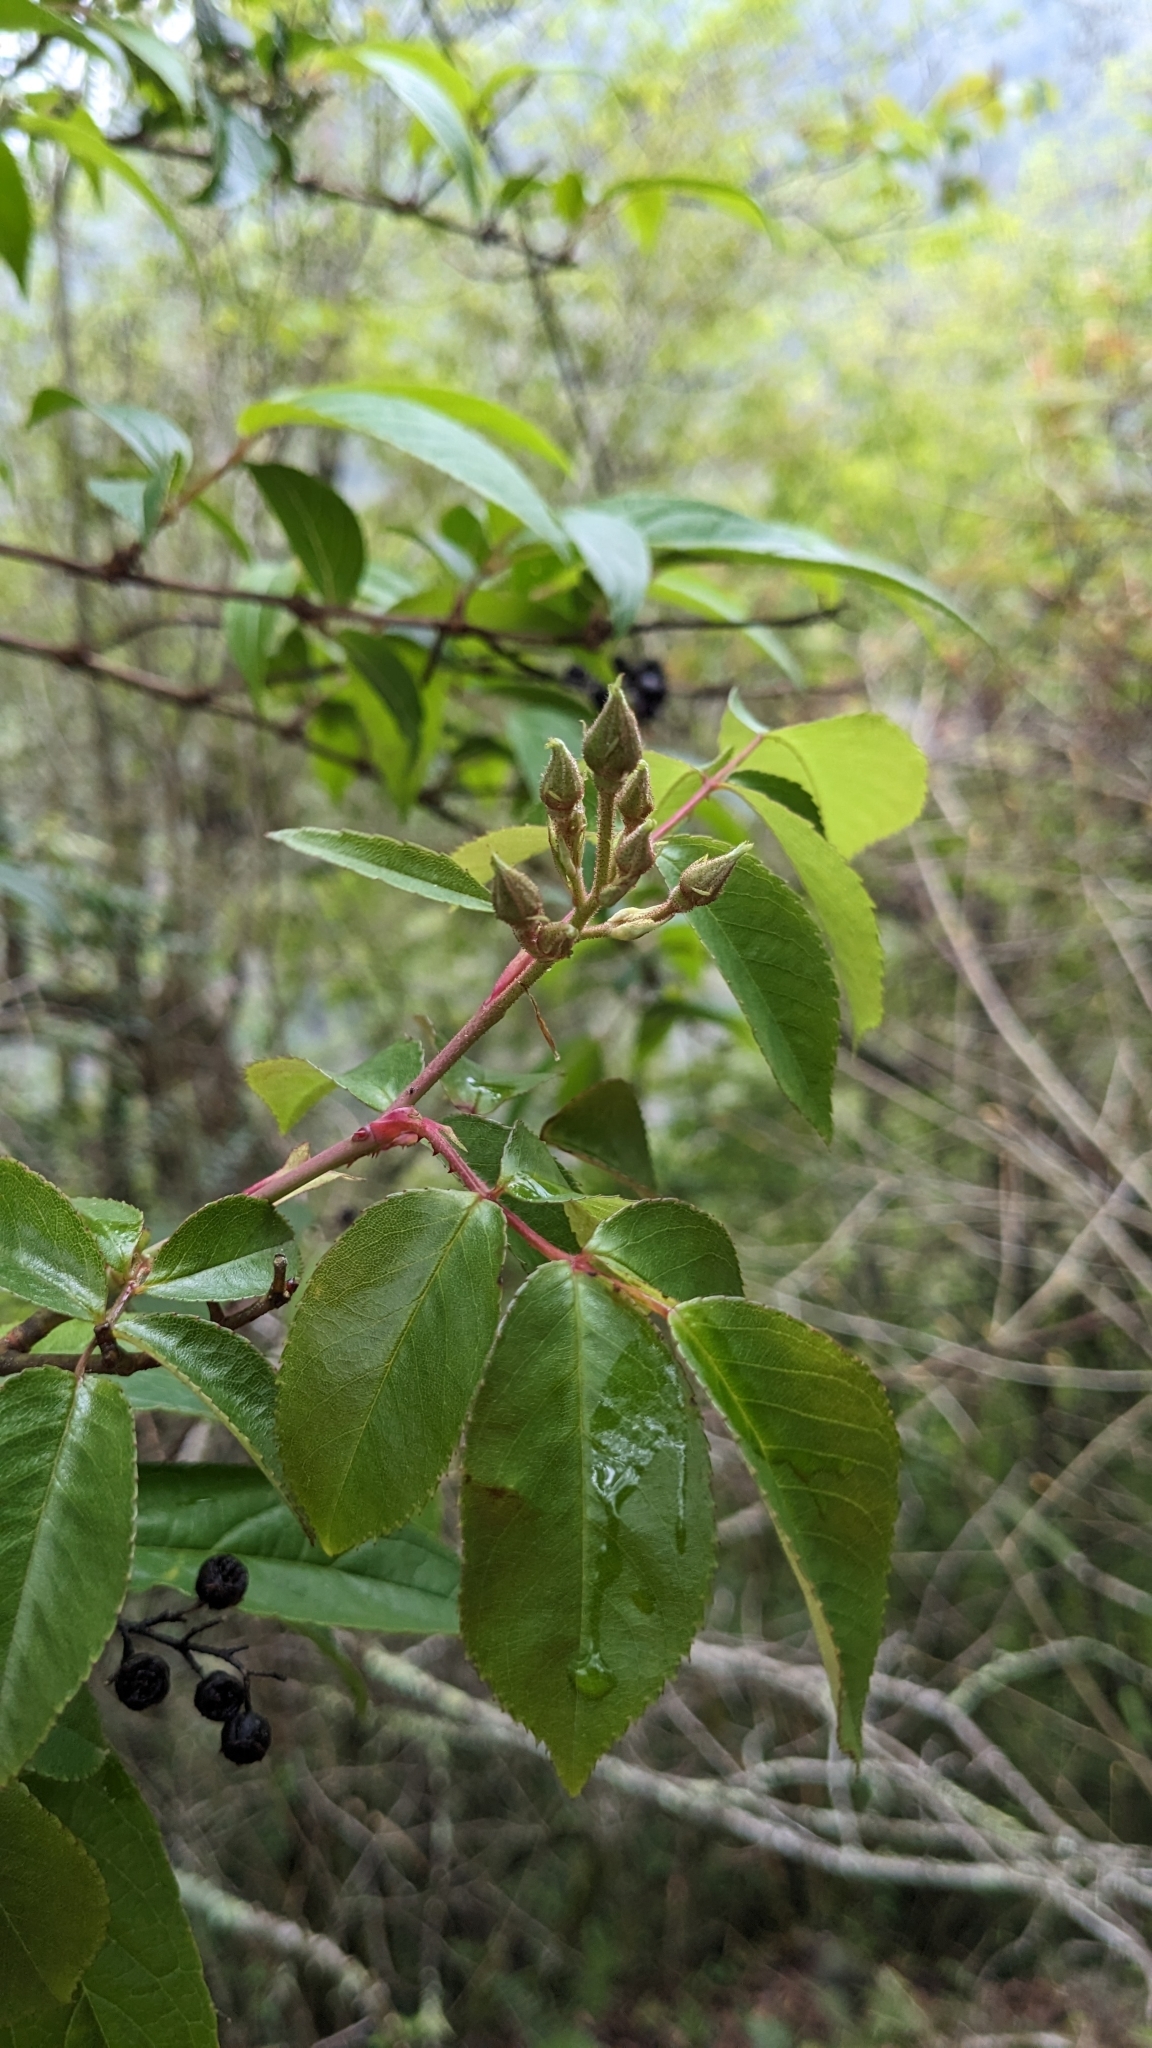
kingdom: Plantae
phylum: Tracheophyta
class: Magnoliopsida
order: Rosales
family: Rosaceae
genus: Rosa
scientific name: Rosa sambucina
